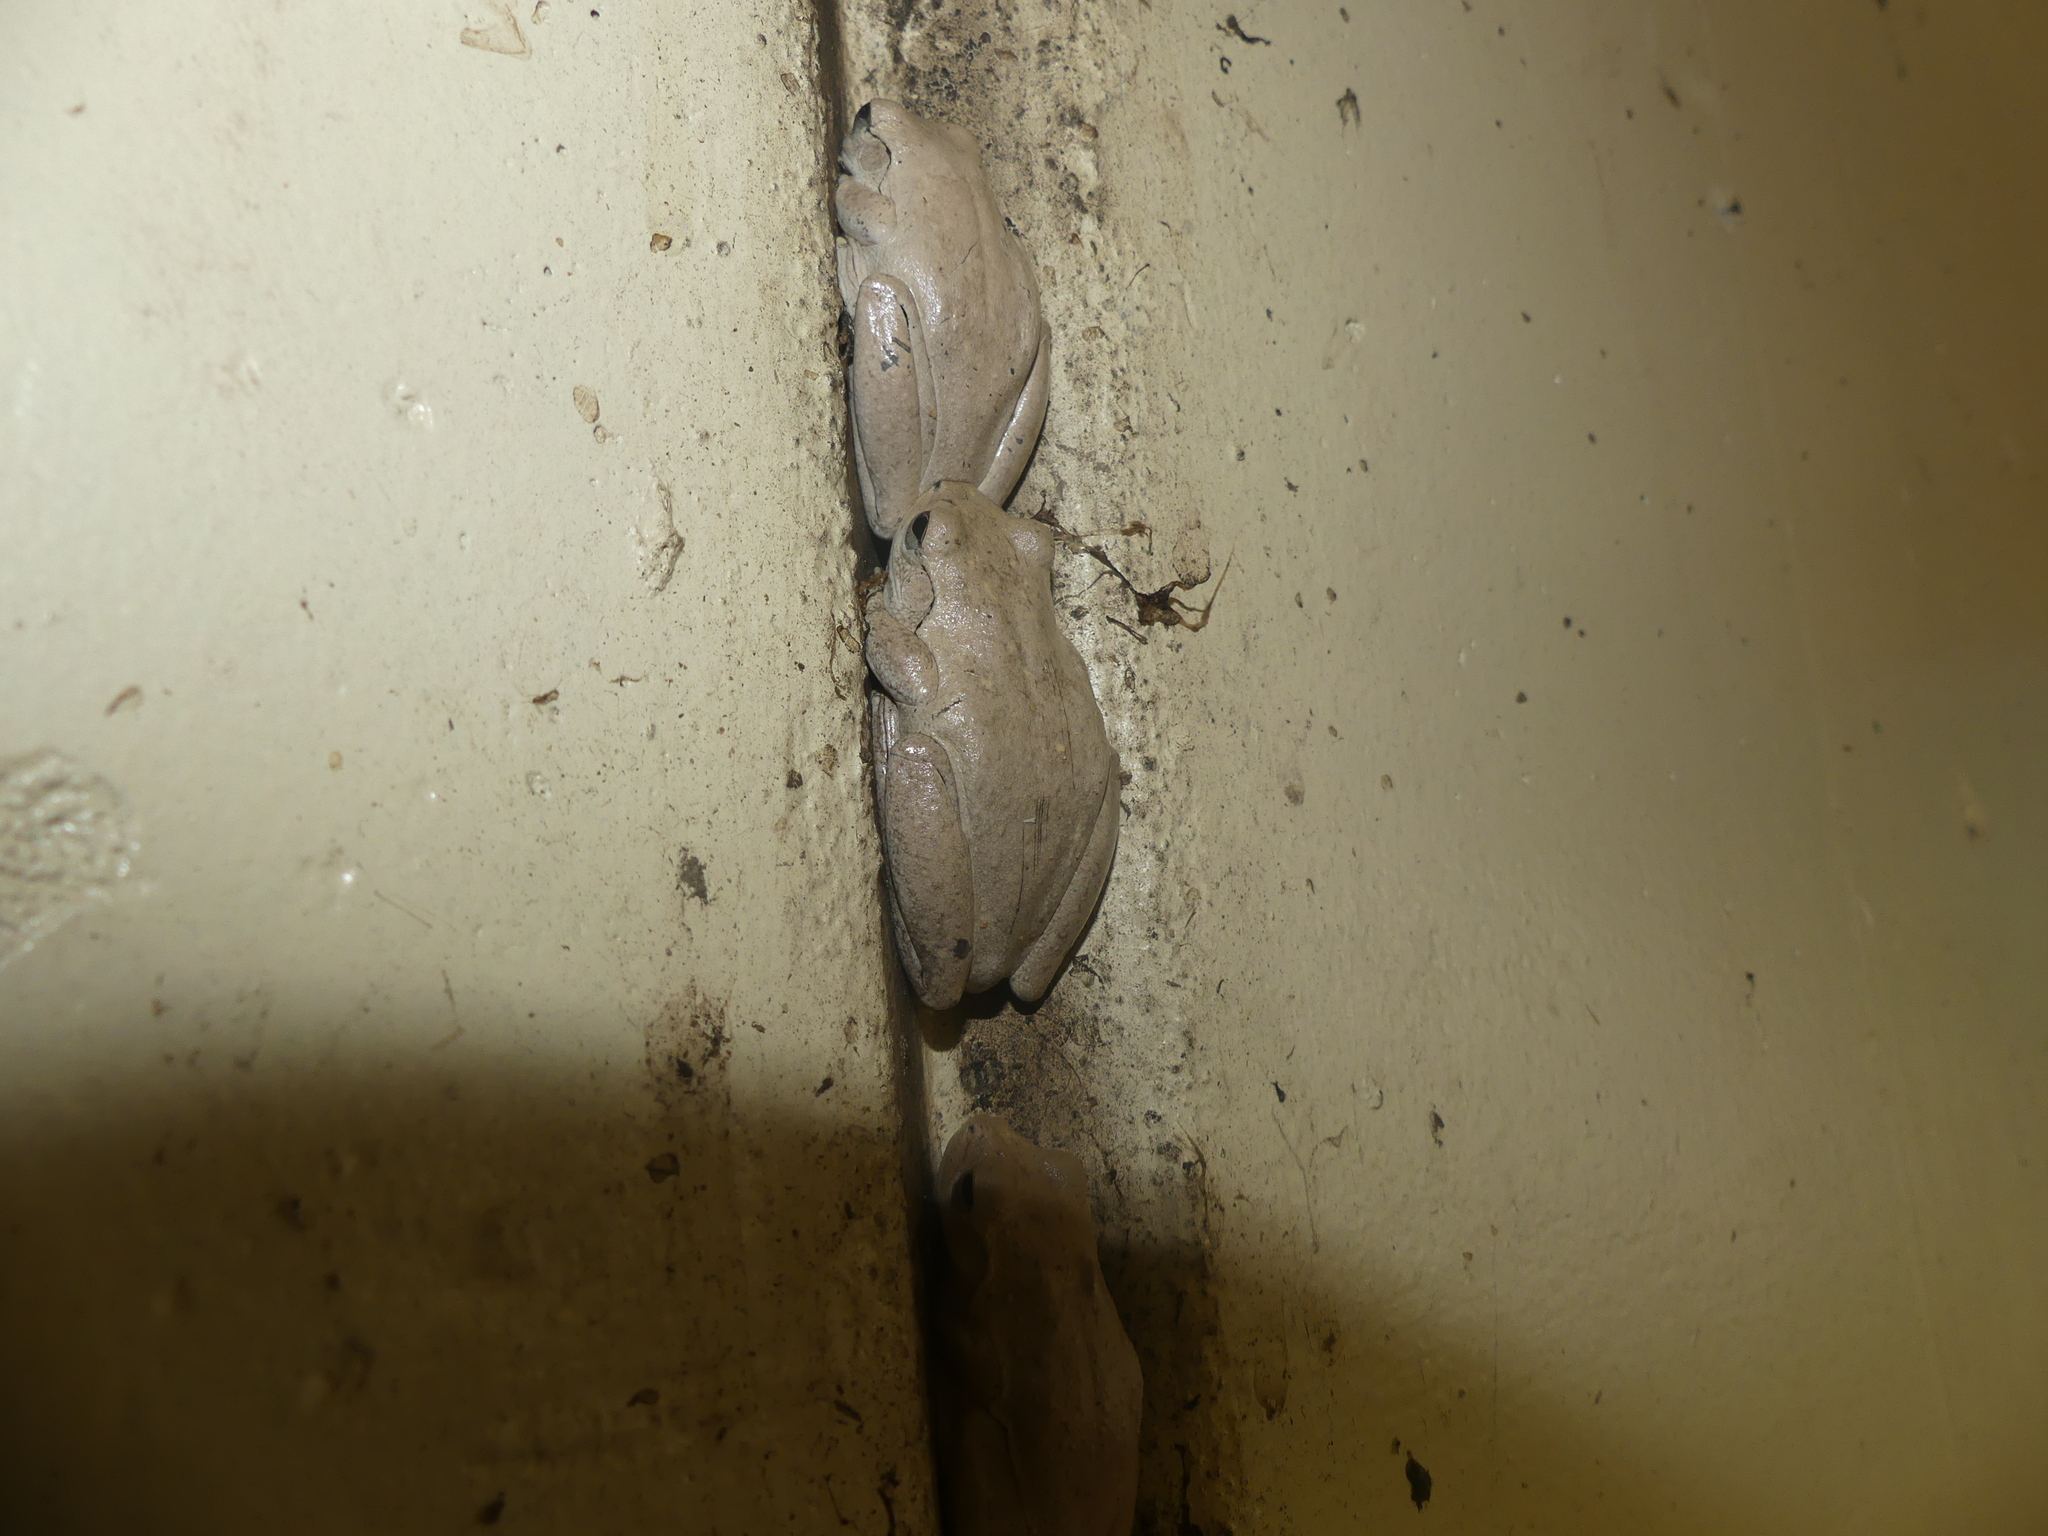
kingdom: Animalia
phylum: Chordata
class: Amphibia
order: Anura
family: Pelodryadidae
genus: Litoria
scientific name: Litoria rubella
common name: Desert tree frog
